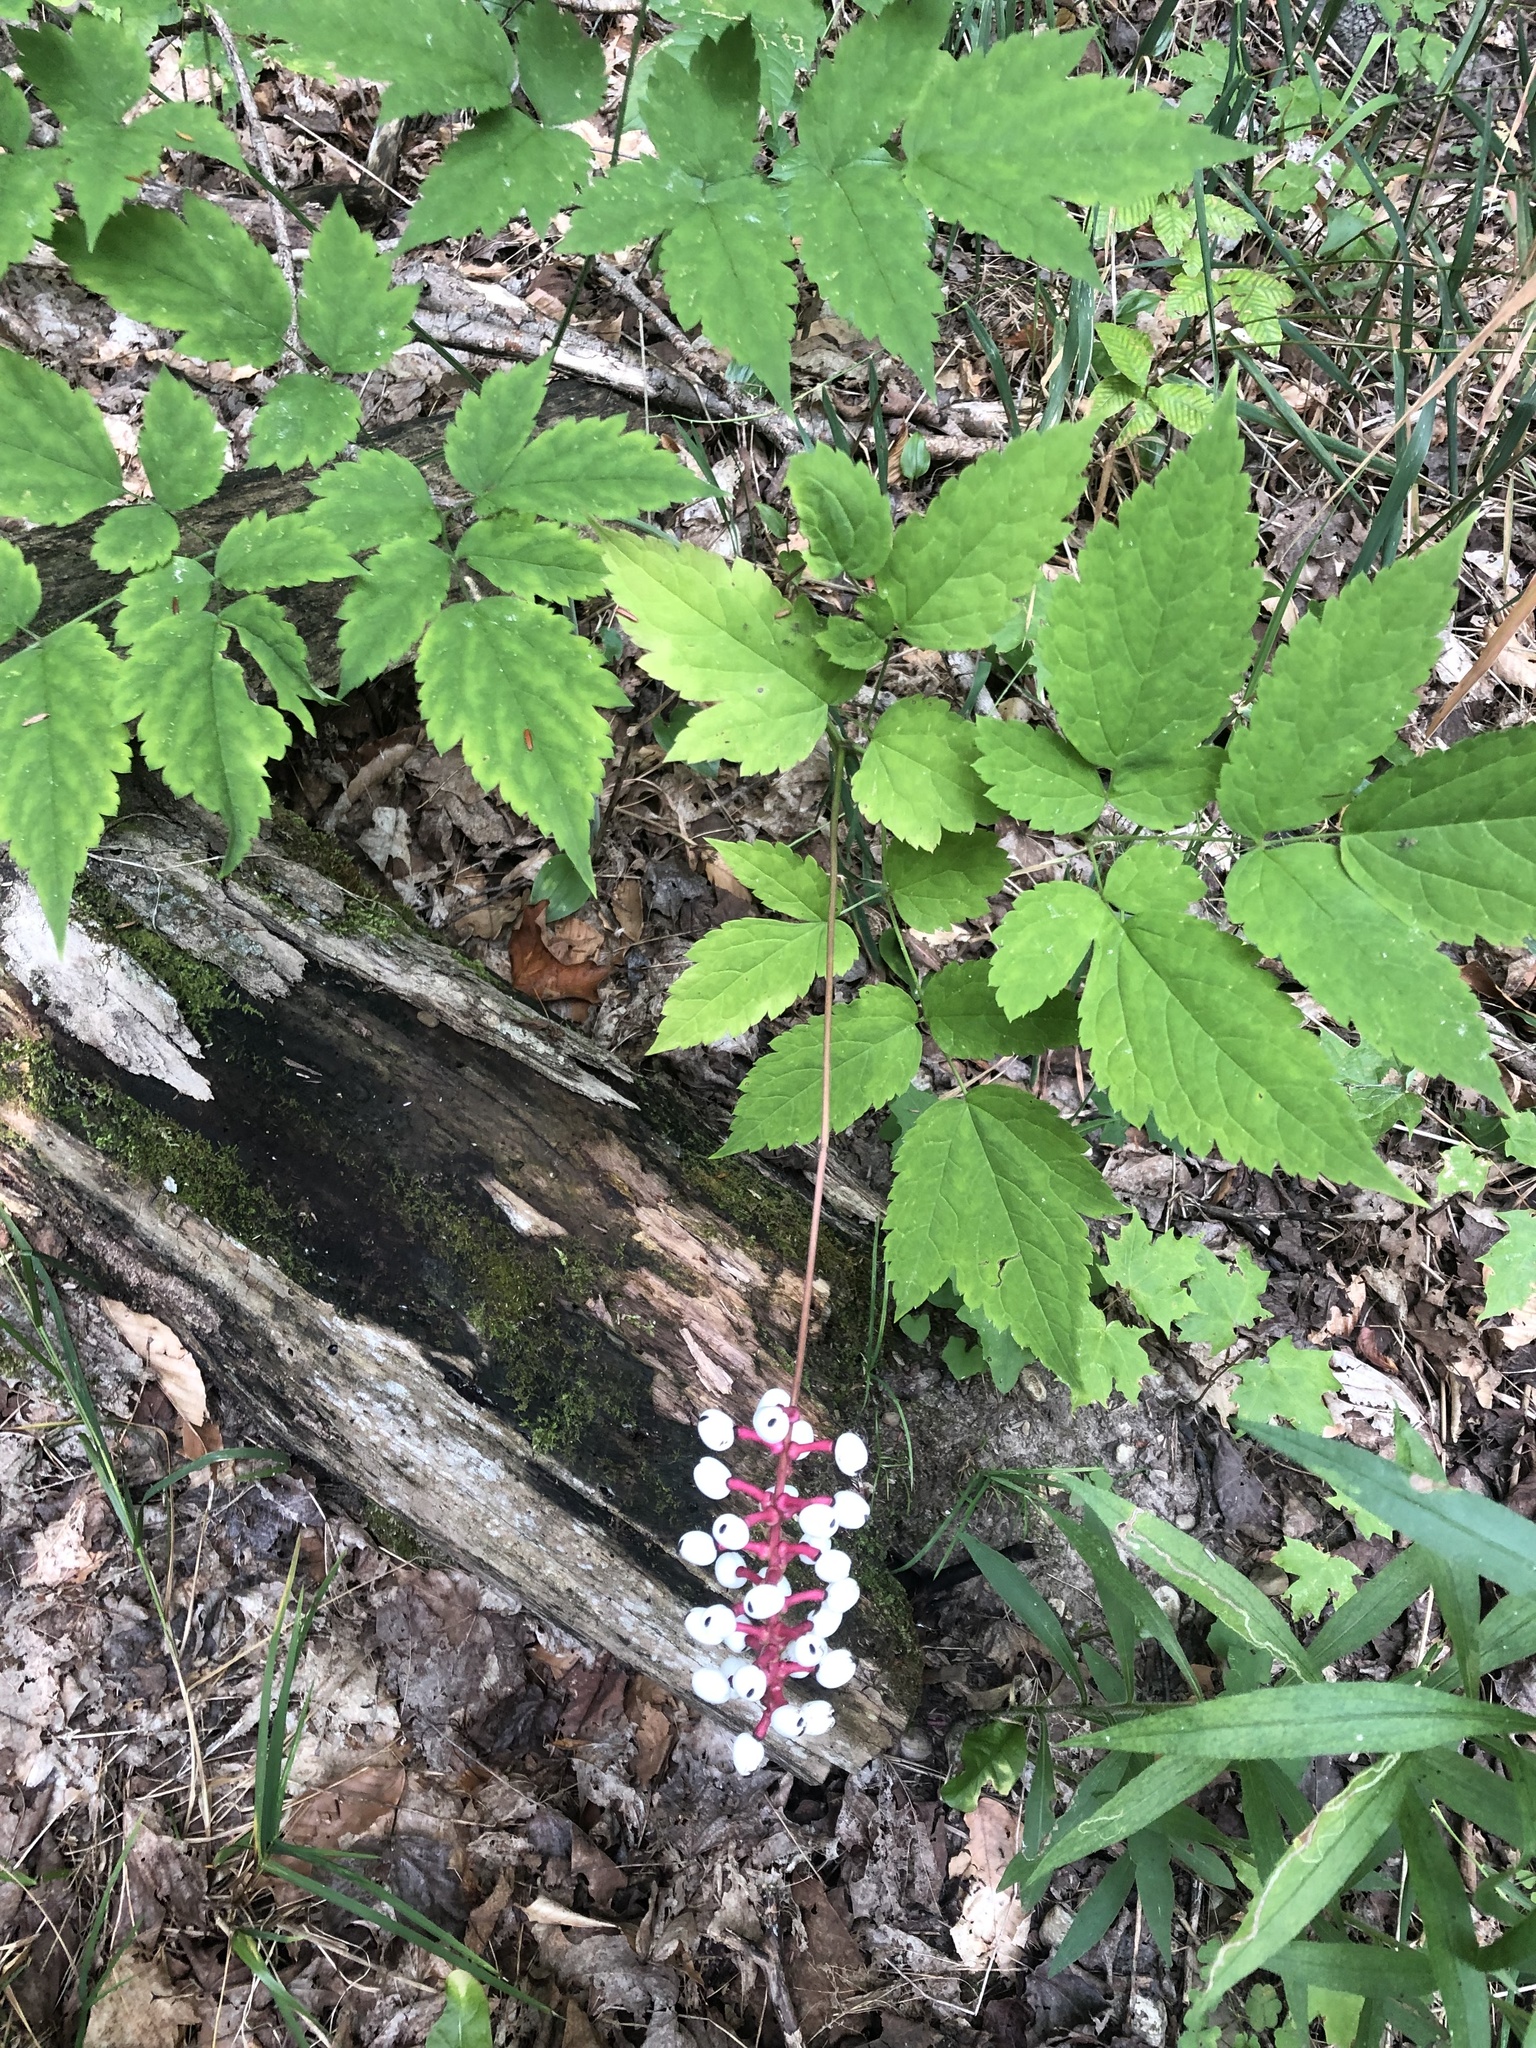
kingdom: Plantae
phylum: Tracheophyta
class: Magnoliopsida
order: Ranunculales
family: Ranunculaceae
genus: Actaea
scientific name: Actaea pachypoda
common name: Doll's-eyes
